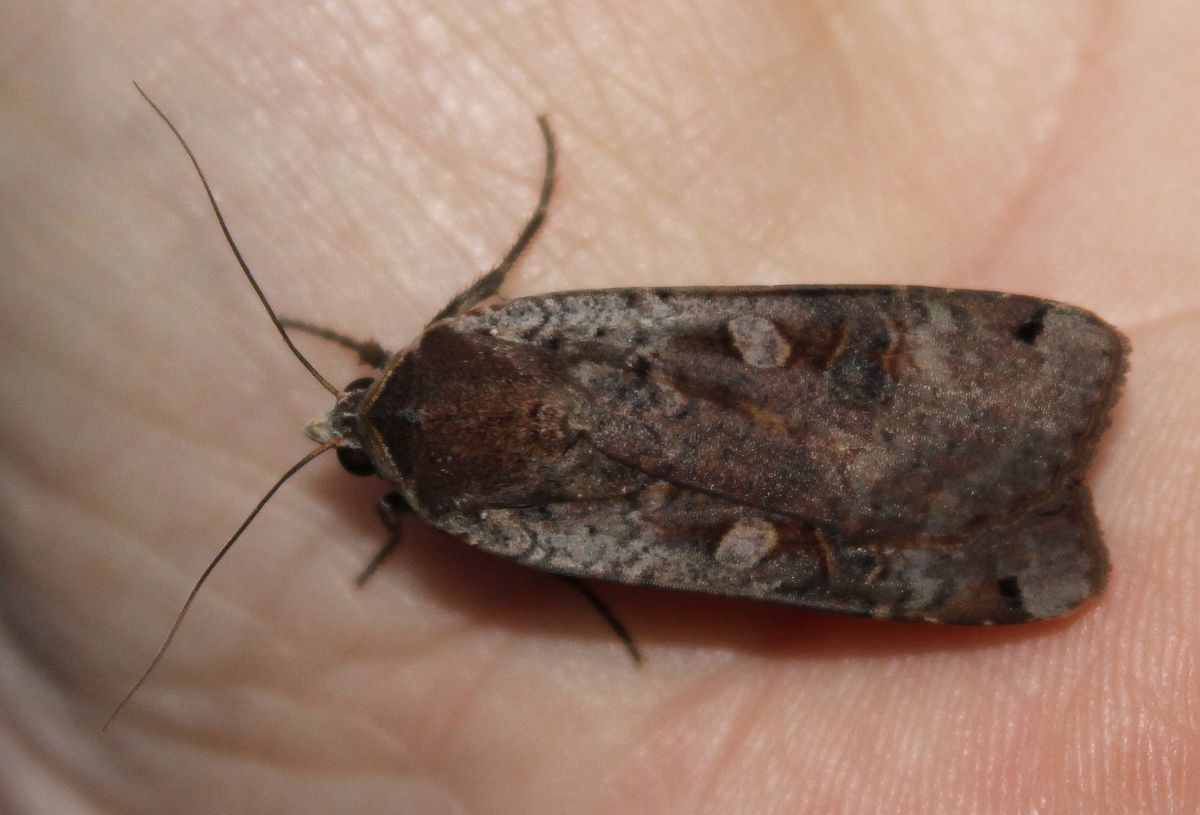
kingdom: Animalia
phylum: Arthropoda
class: Insecta
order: Lepidoptera
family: Noctuidae
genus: Noctua
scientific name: Noctua pronuba
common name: Large yellow underwing
